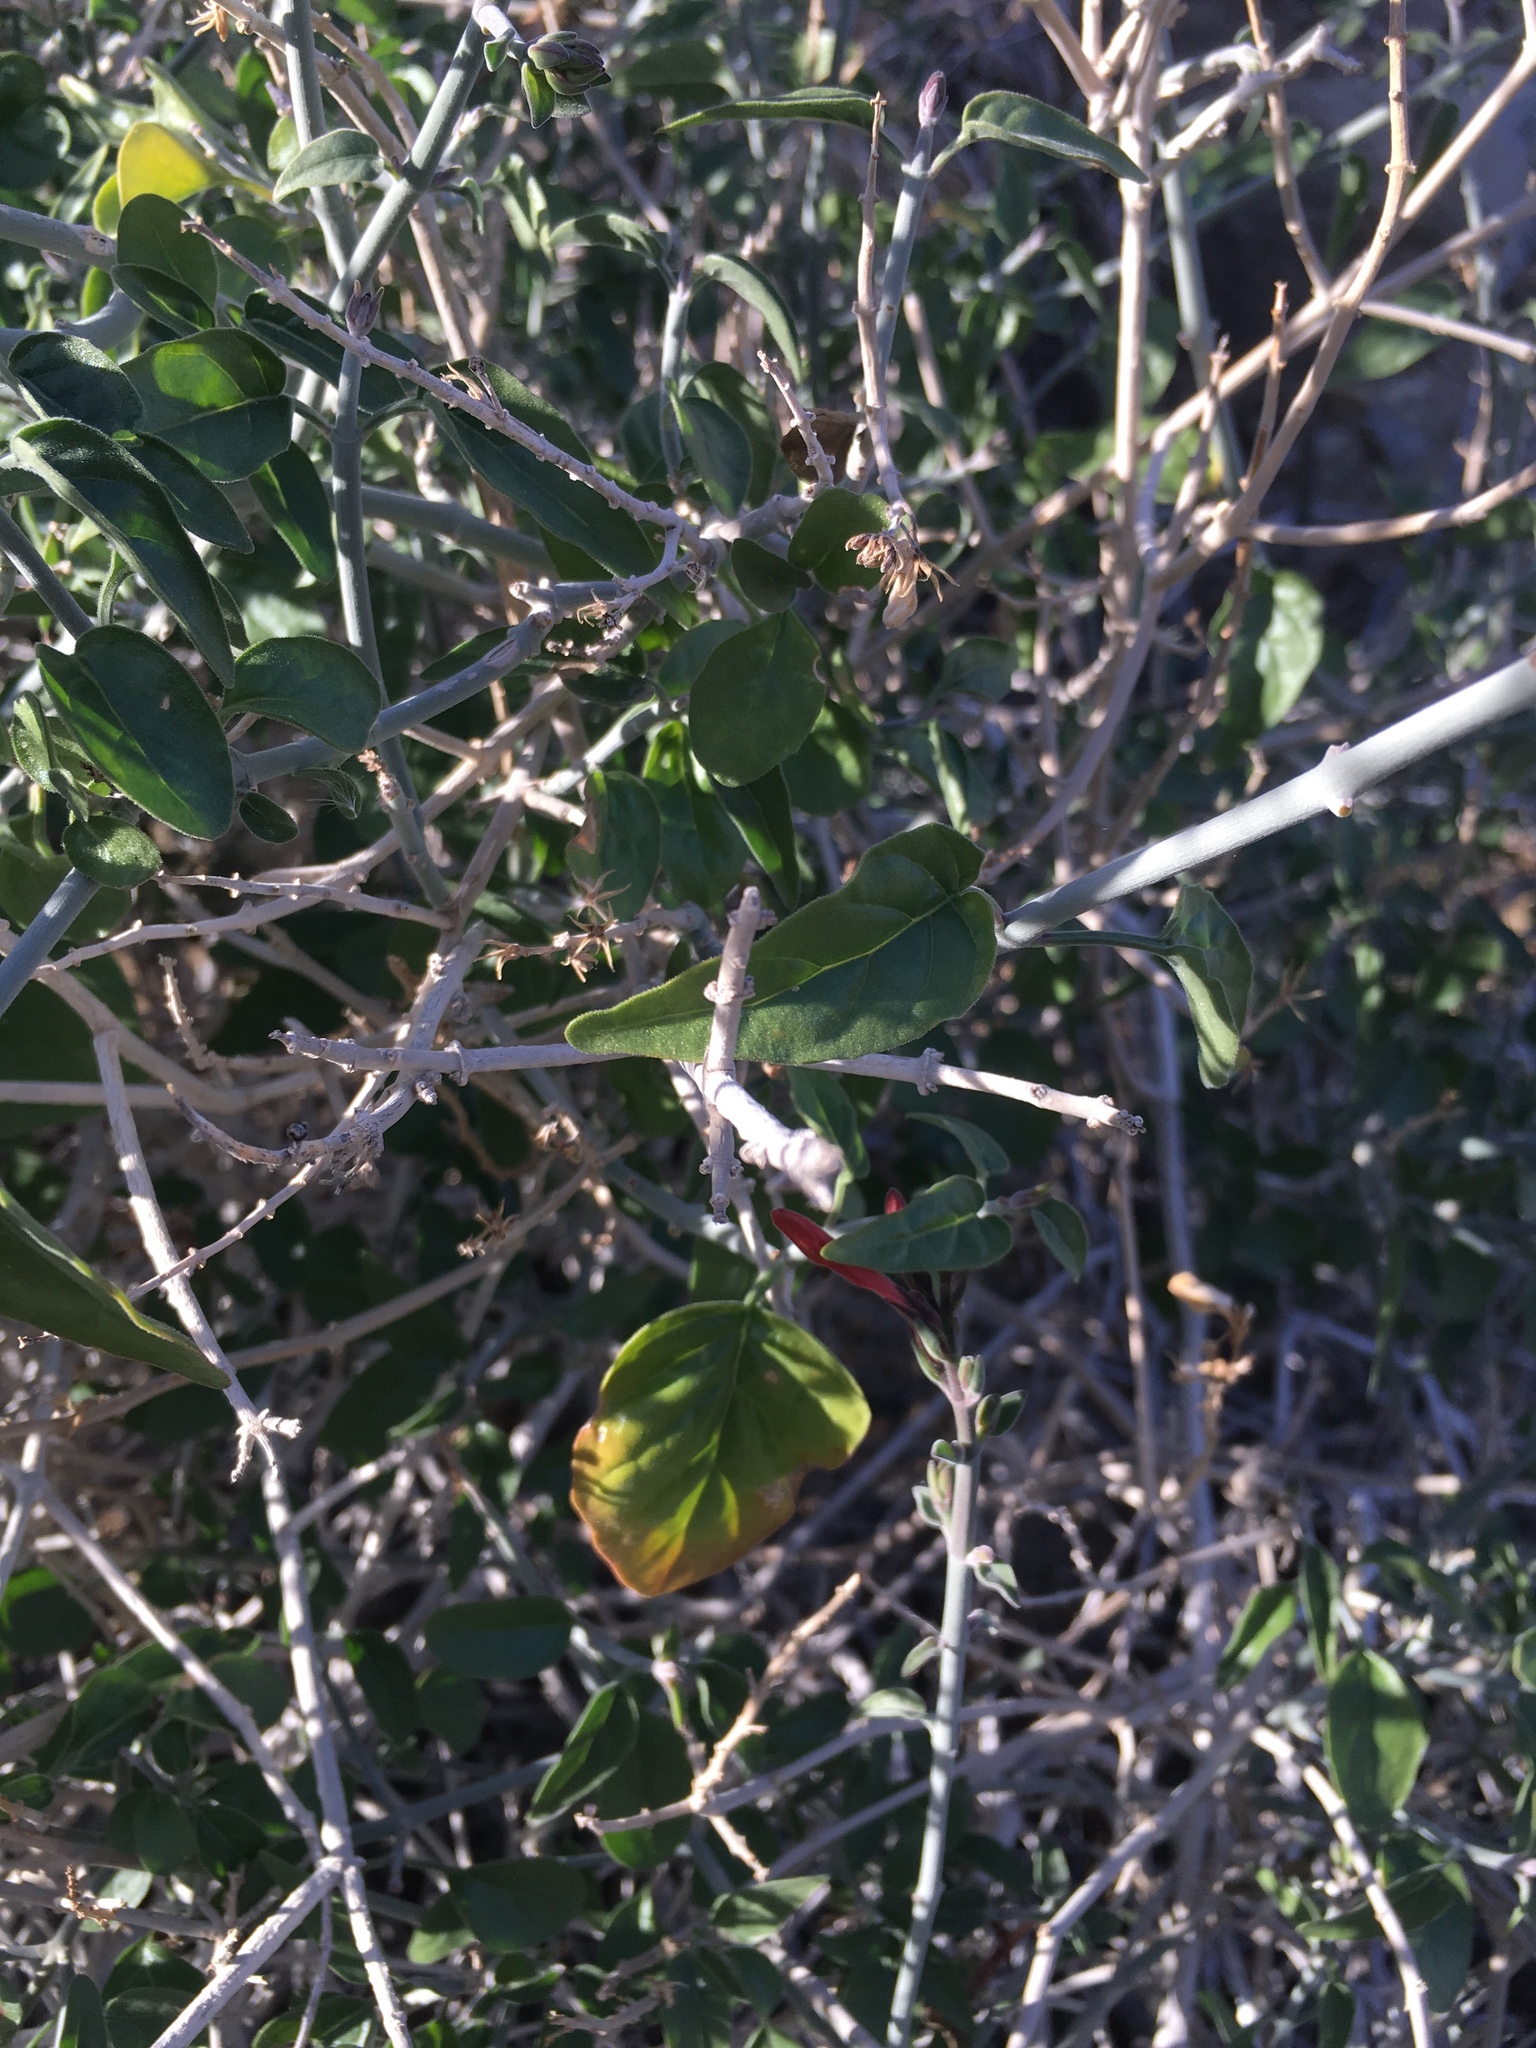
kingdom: Plantae
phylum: Tracheophyta
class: Magnoliopsida
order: Lamiales
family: Acanthaceae
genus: Justicia
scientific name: Justicia californica
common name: Chuparosa-honeysuckle
